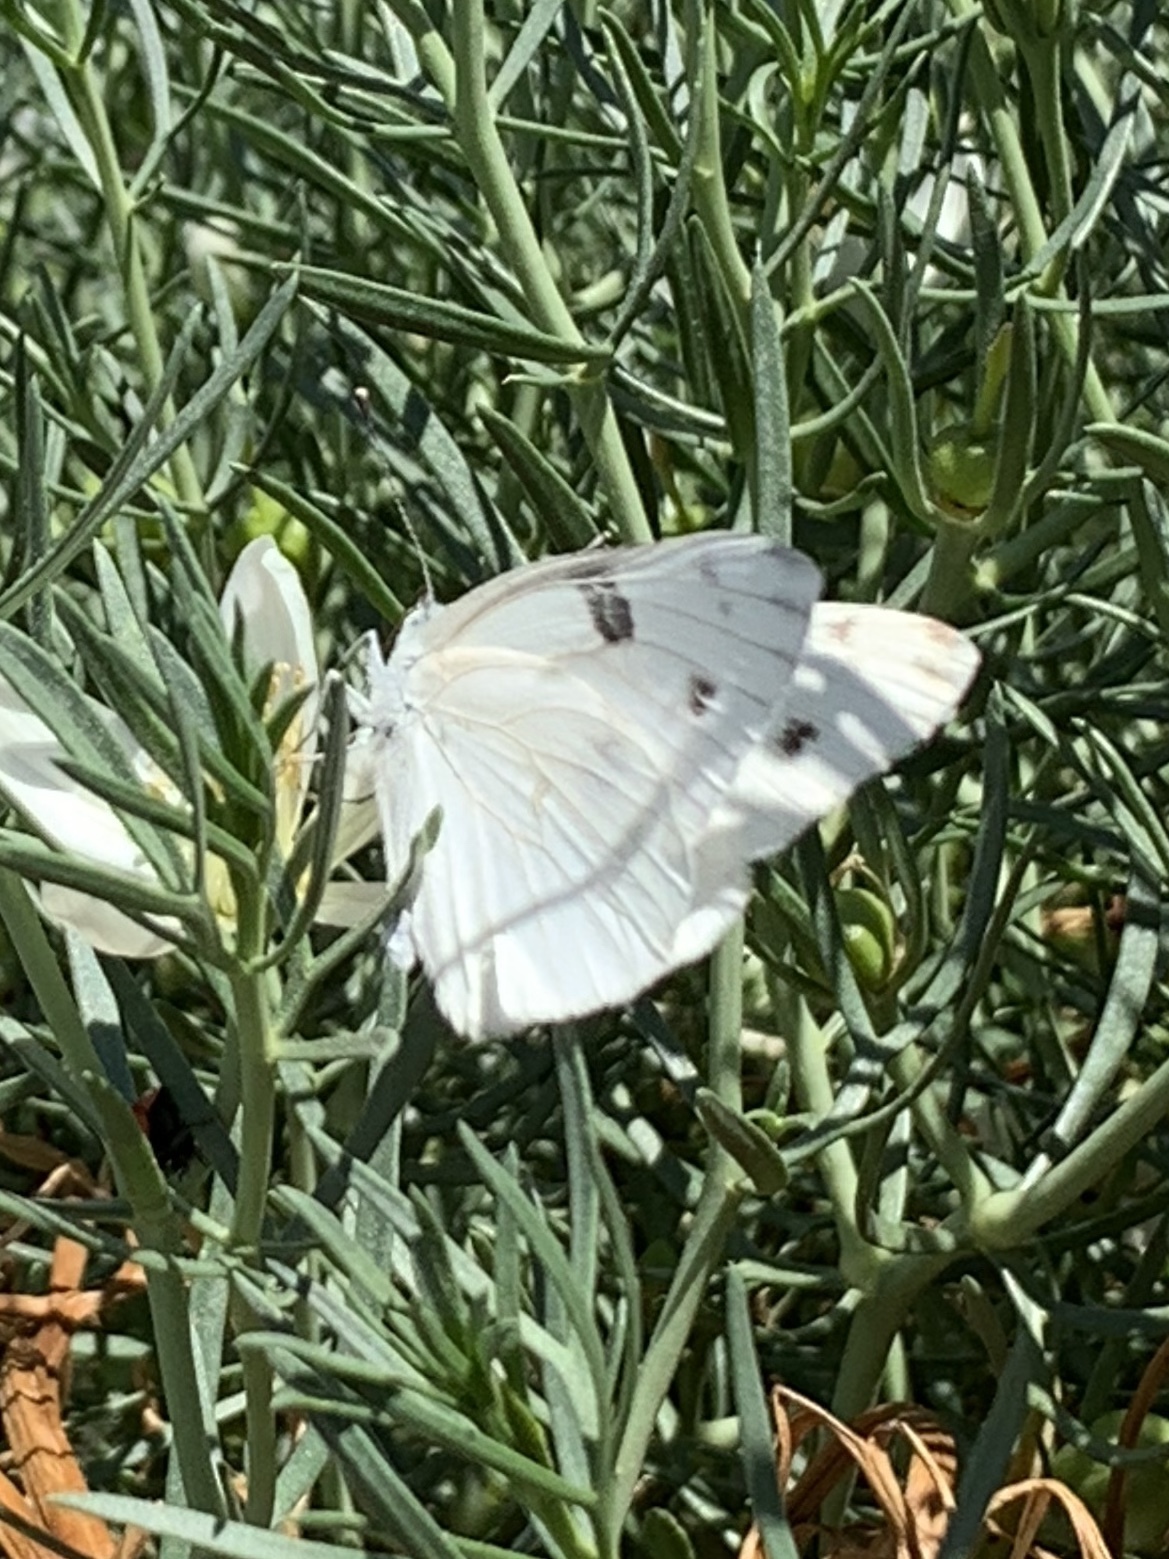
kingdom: Animalia
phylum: Arthropoda
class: Insecta
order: Lepidoptera
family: Pieridae
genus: Pontia
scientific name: Pontia protodice
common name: Checkered white
